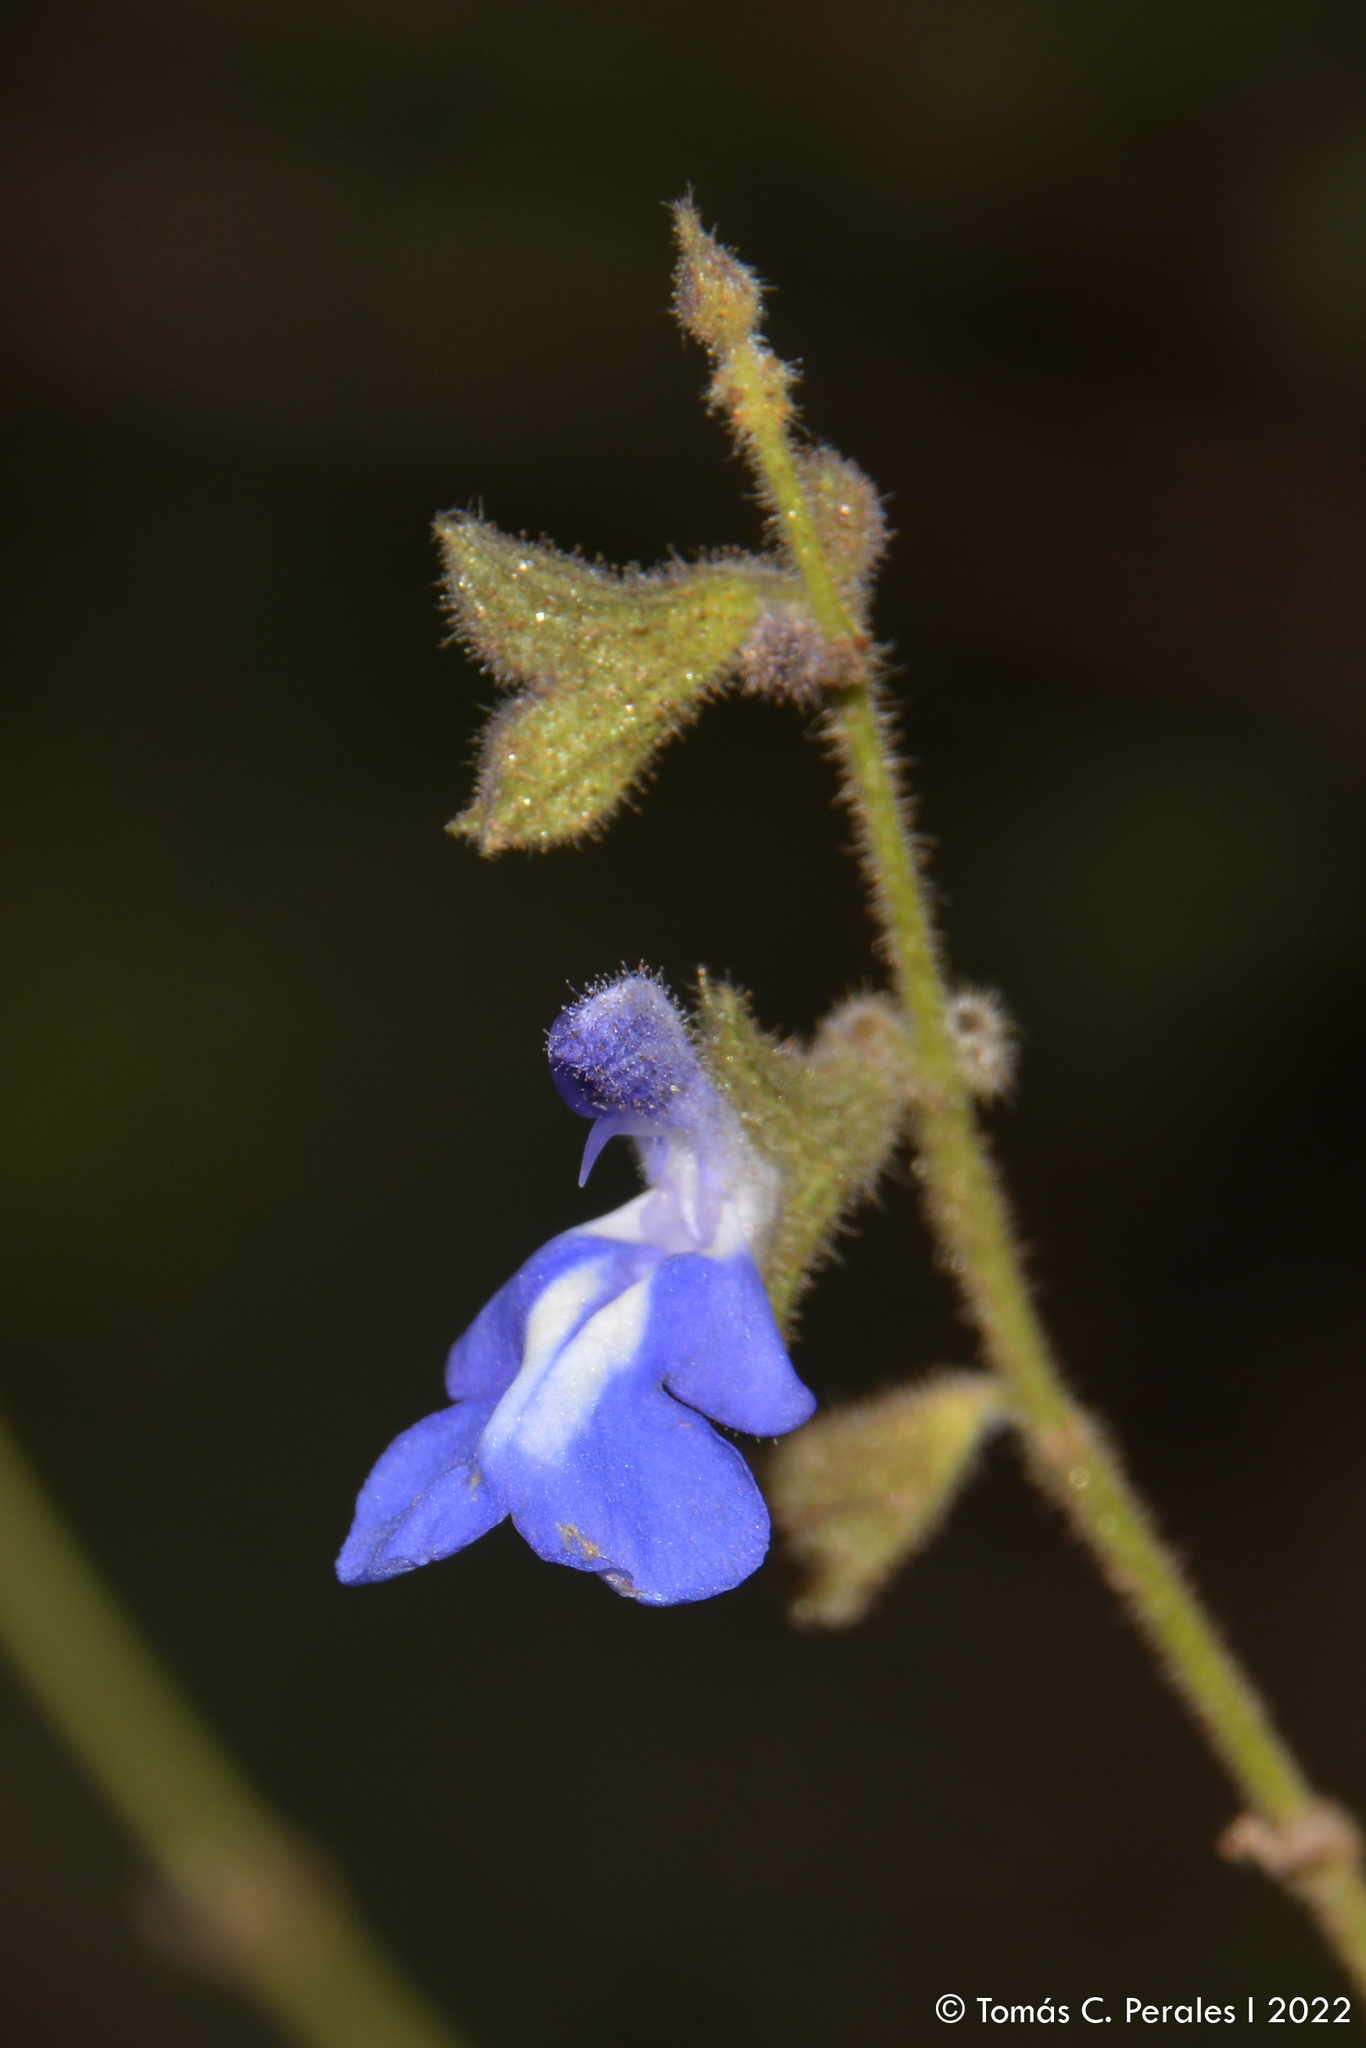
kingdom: Plantae
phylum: Tracheophyta
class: Magnoliopsida
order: Lamiales
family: Lamiaceae
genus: Salvia
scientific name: Salvia cuspidata
